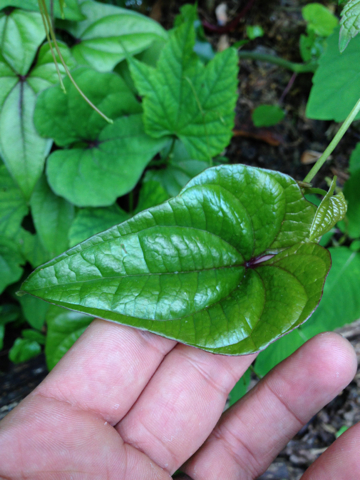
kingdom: Plantae
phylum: Tracheophyta
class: Liliopsida
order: Dioscoreales
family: Dioscoreaceae
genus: Dioscorea
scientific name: Dioscorea polystachya
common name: Chinese yam
